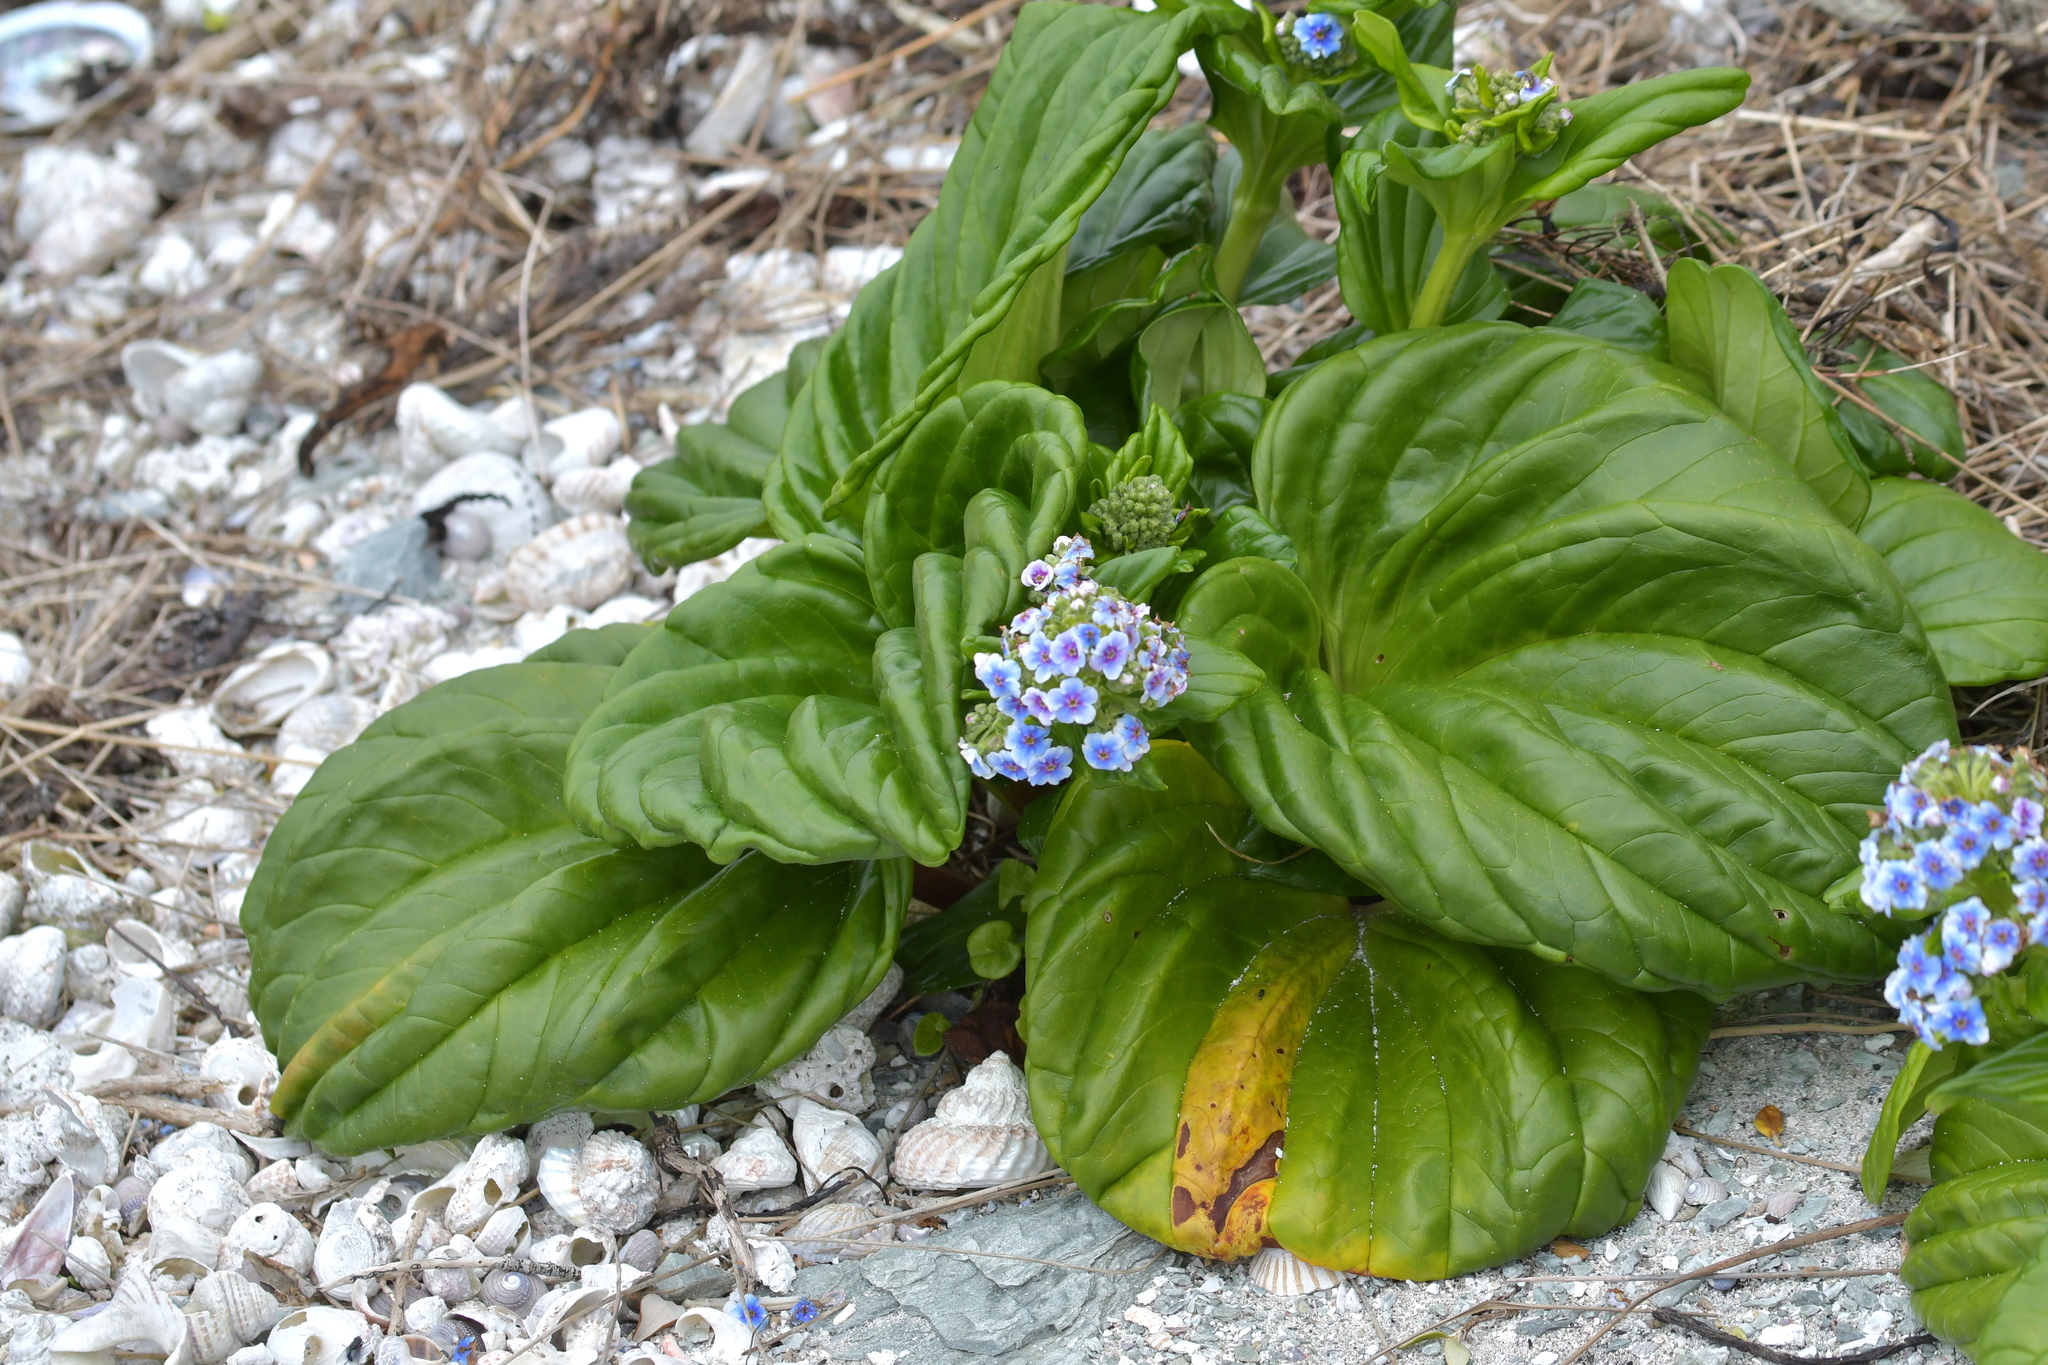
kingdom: Plantae
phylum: Tracheophyta
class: Magnoliopsida
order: Boraginales
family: Boraginaceae
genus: Myosotidium
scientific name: Myosotidium hortensia
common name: Giant forget-me-not
